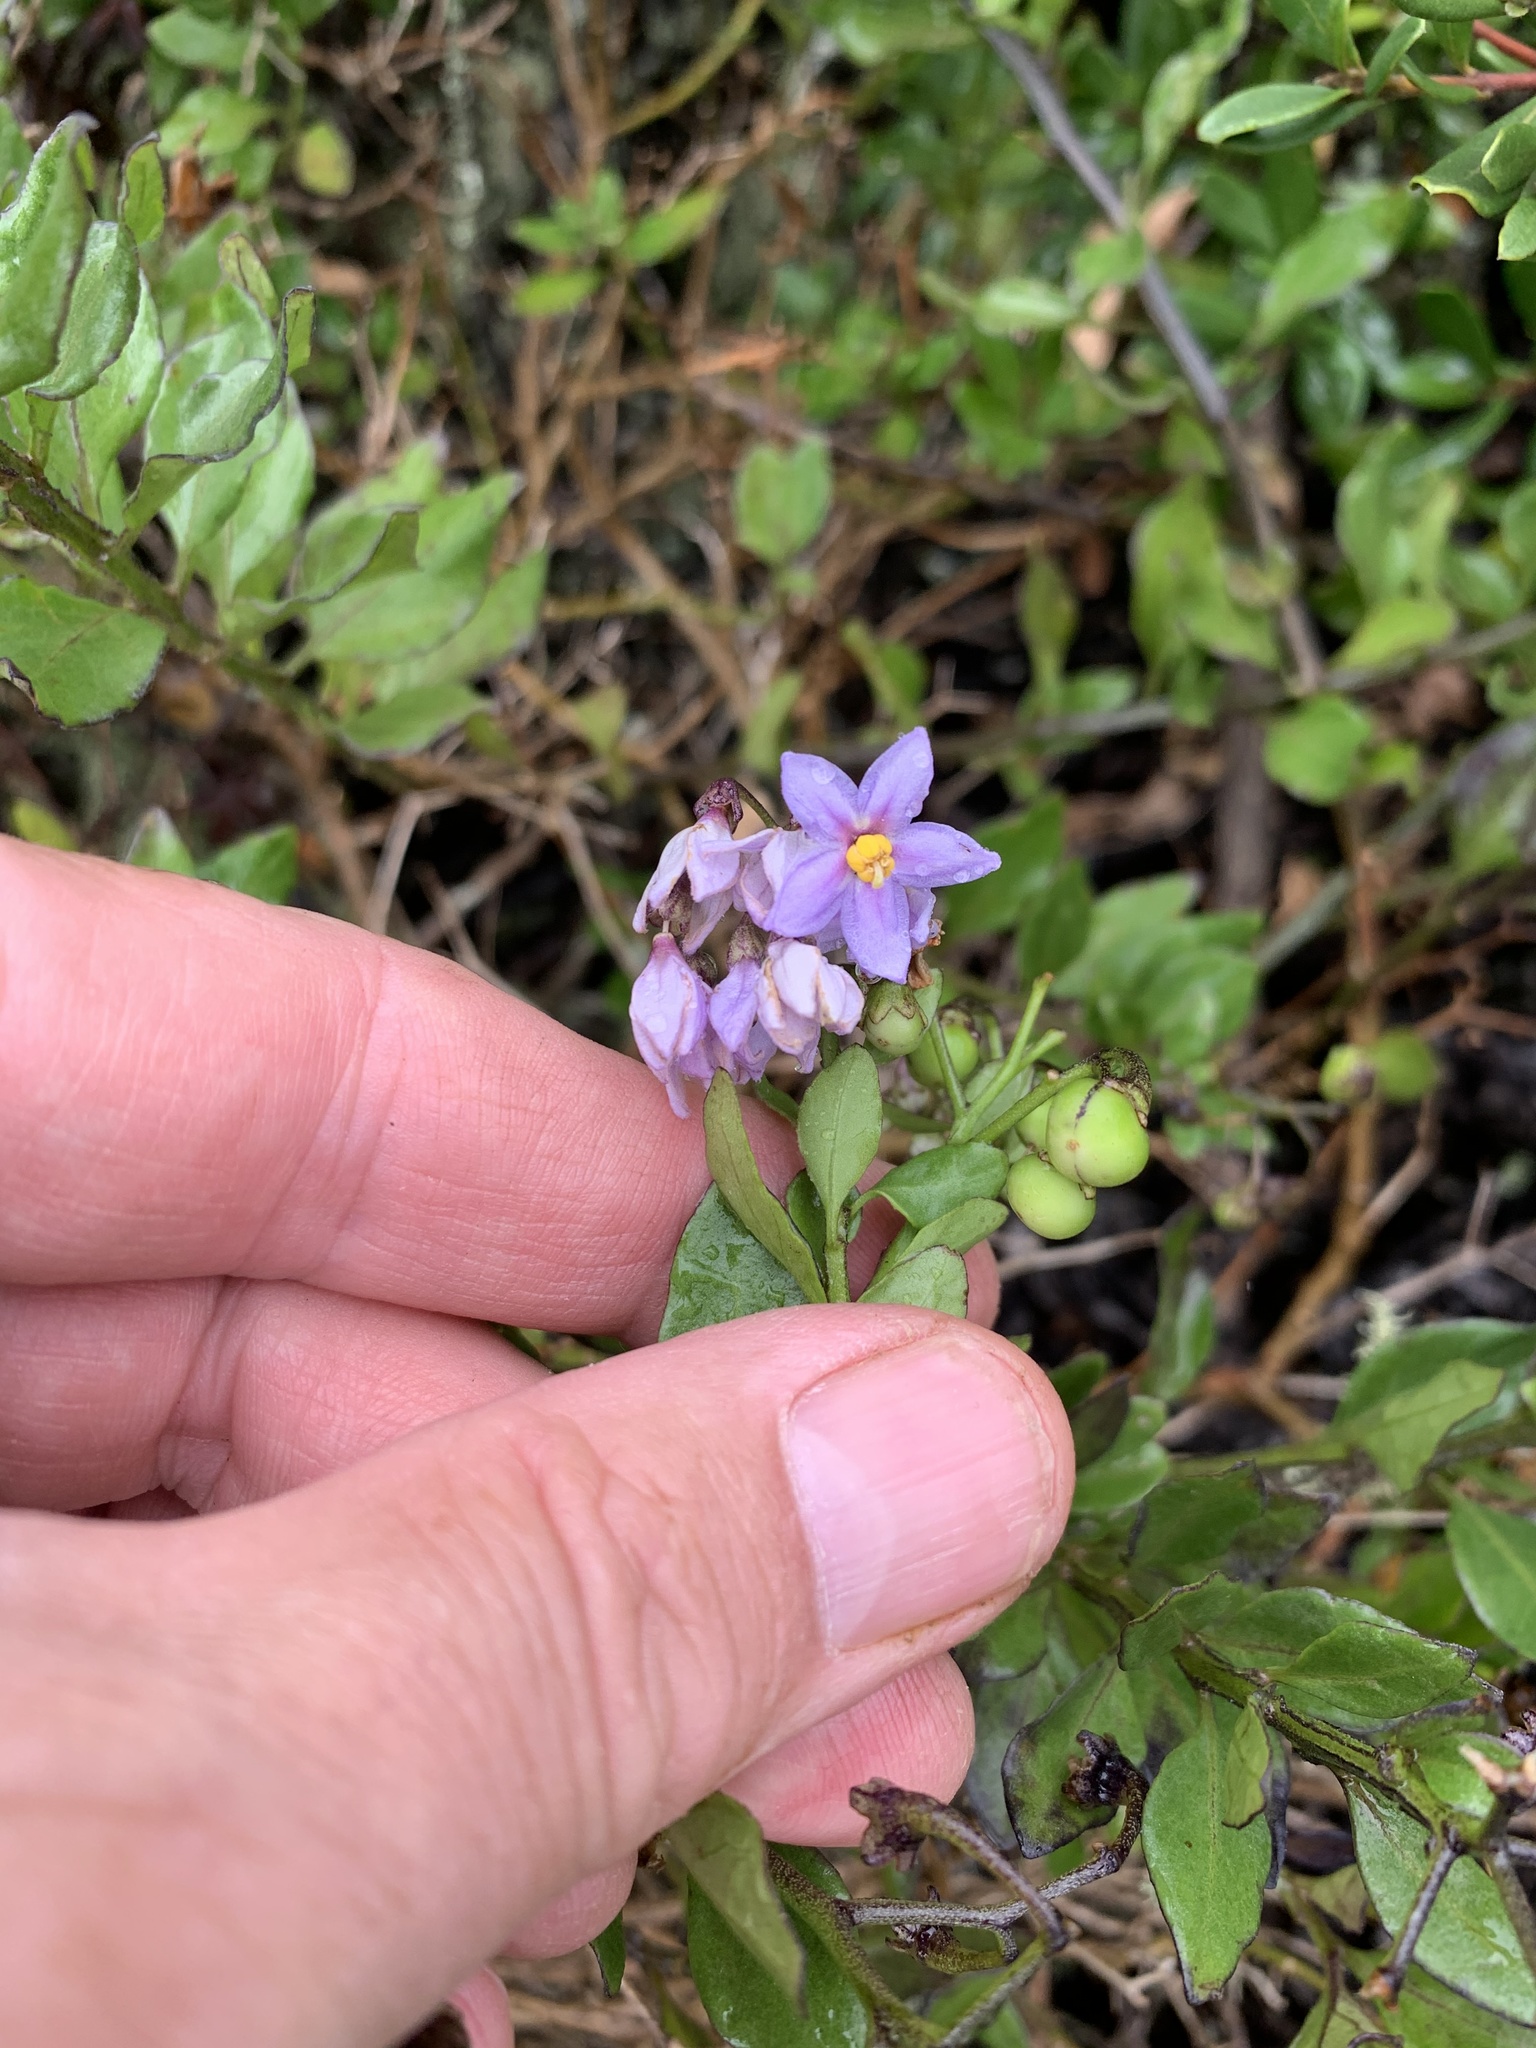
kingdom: Plantae
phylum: Tracheophyta
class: Magnoliopsida
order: Solanales
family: Solanaceae
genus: Solanum
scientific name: Solanum africanum
